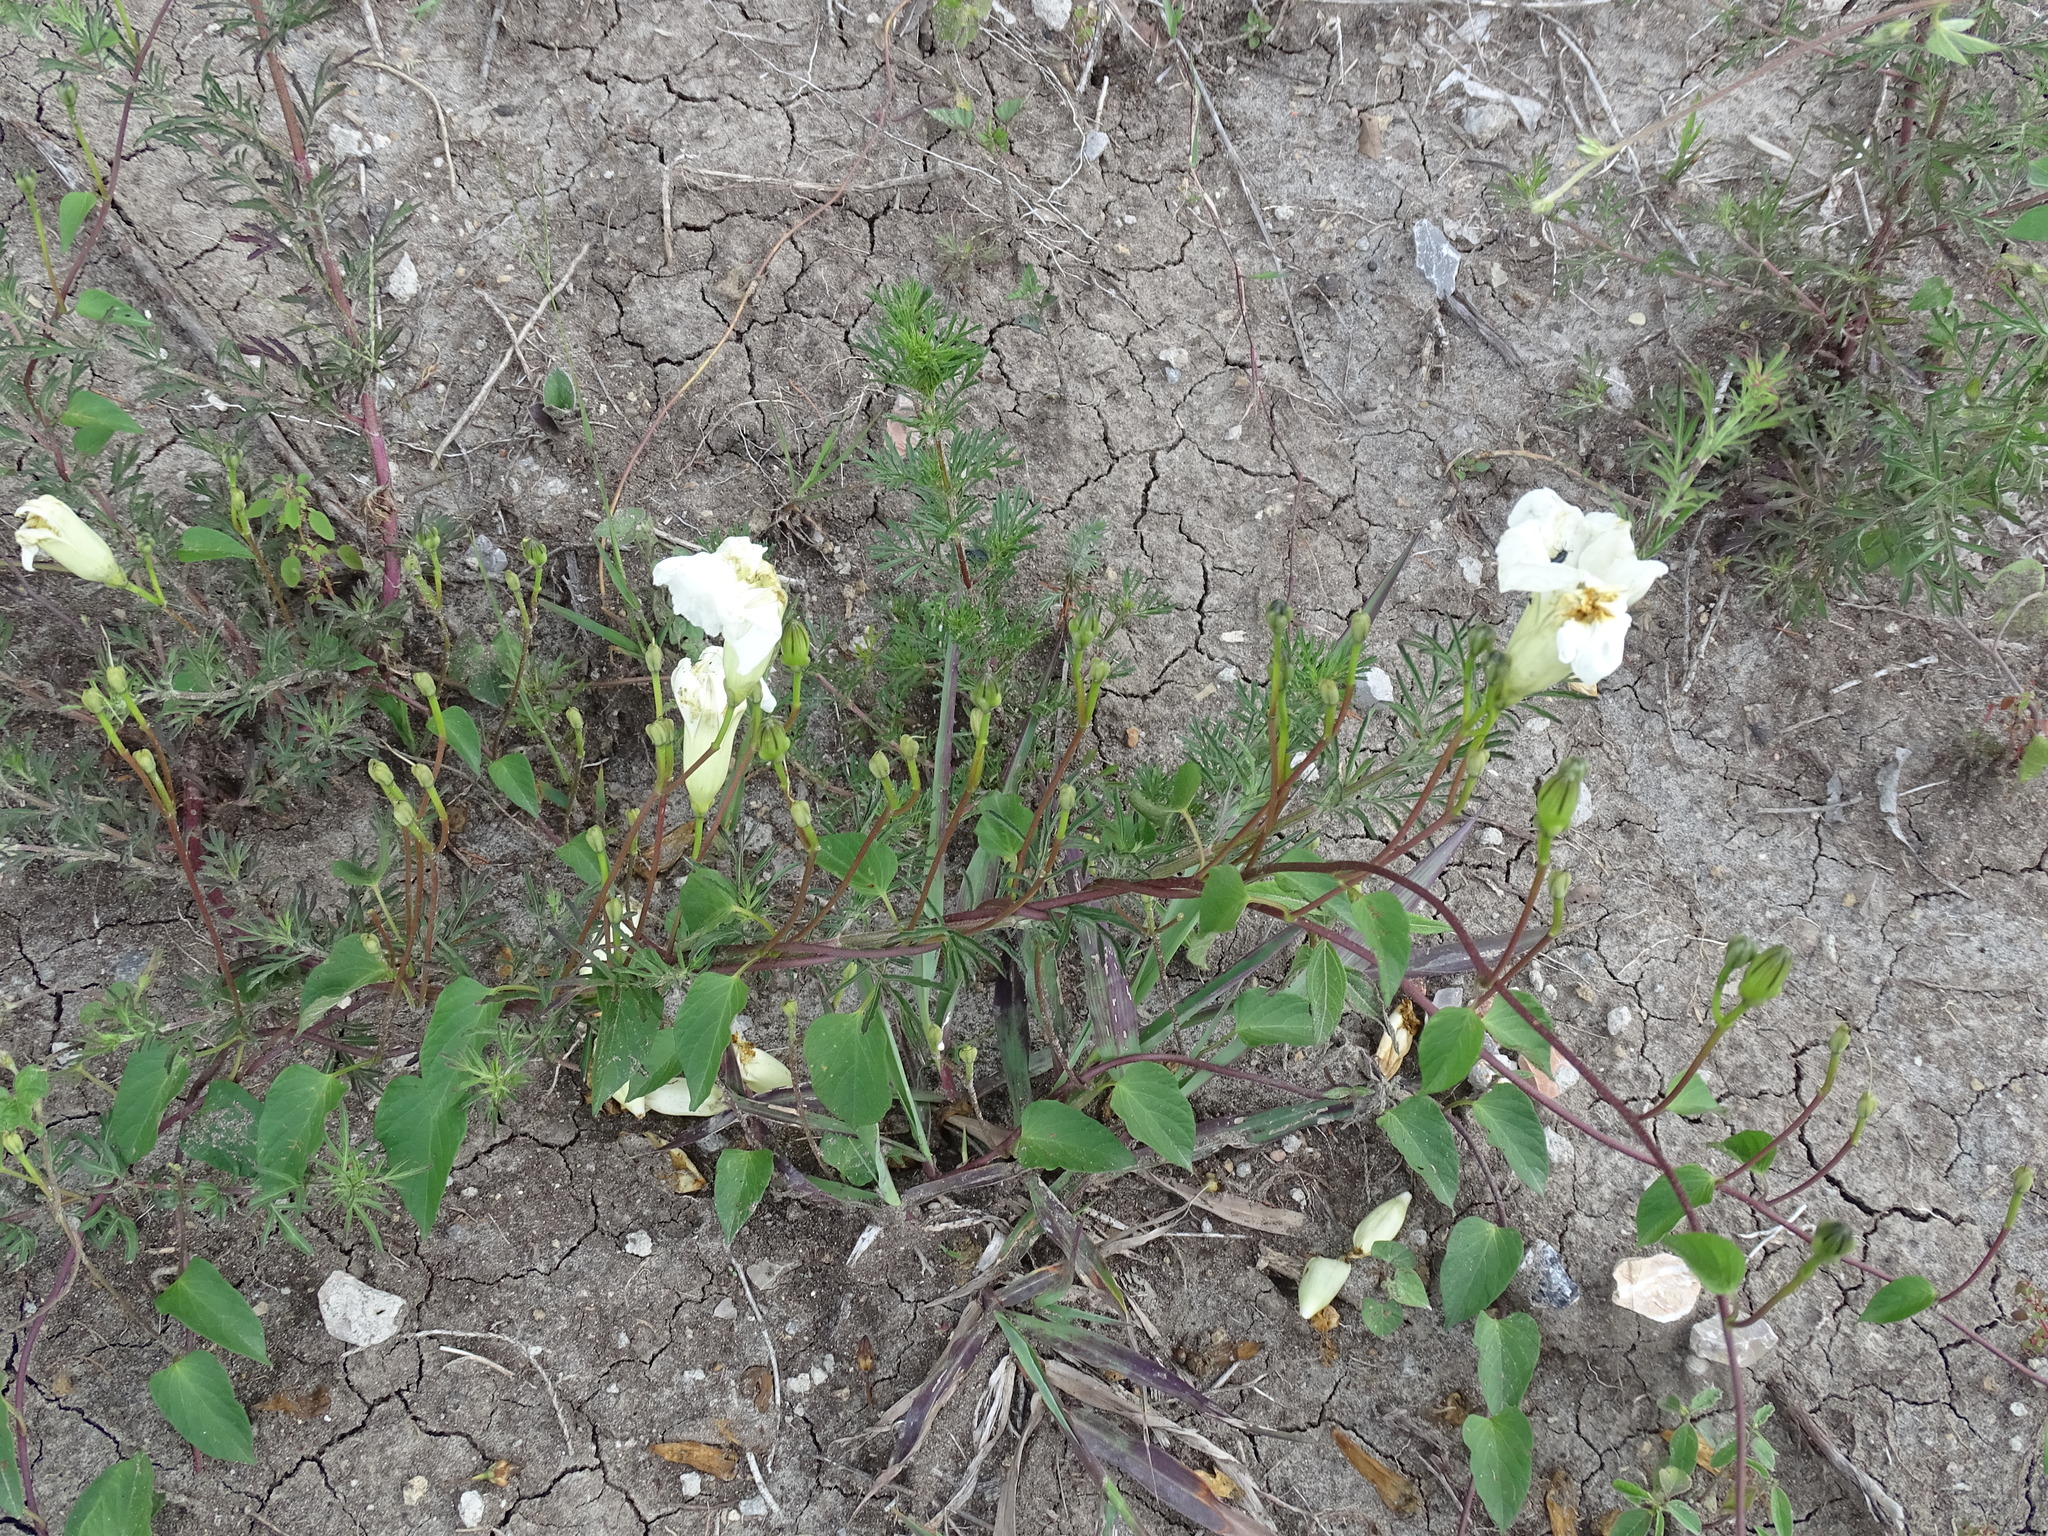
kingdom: Plantae
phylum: Tracheophyta
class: Magnoliopsida
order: Solanales
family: Convolvulaceae
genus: Ipomoea
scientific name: Ipomoea proxima
